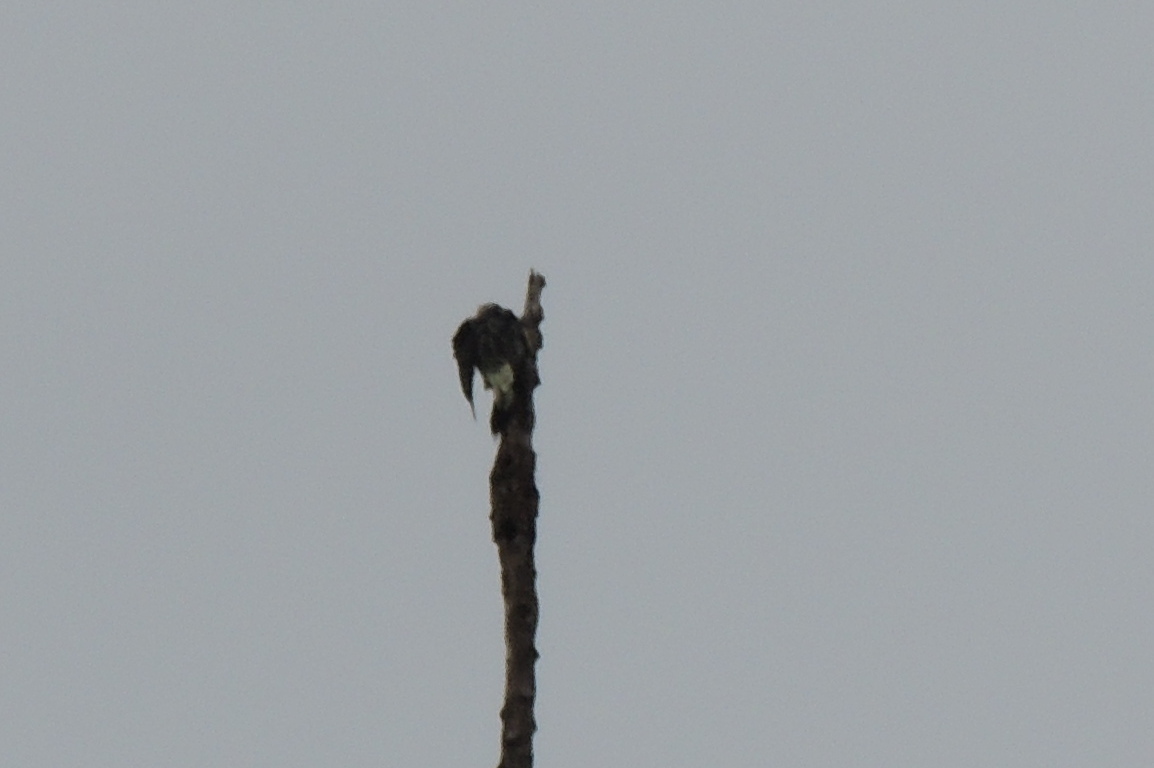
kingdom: Animalia
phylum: Chordata
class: Aves
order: Piciformes
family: Picidae
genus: Melanerpes
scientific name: Melanerpes pucherani
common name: Black-cheeked woodpecker
